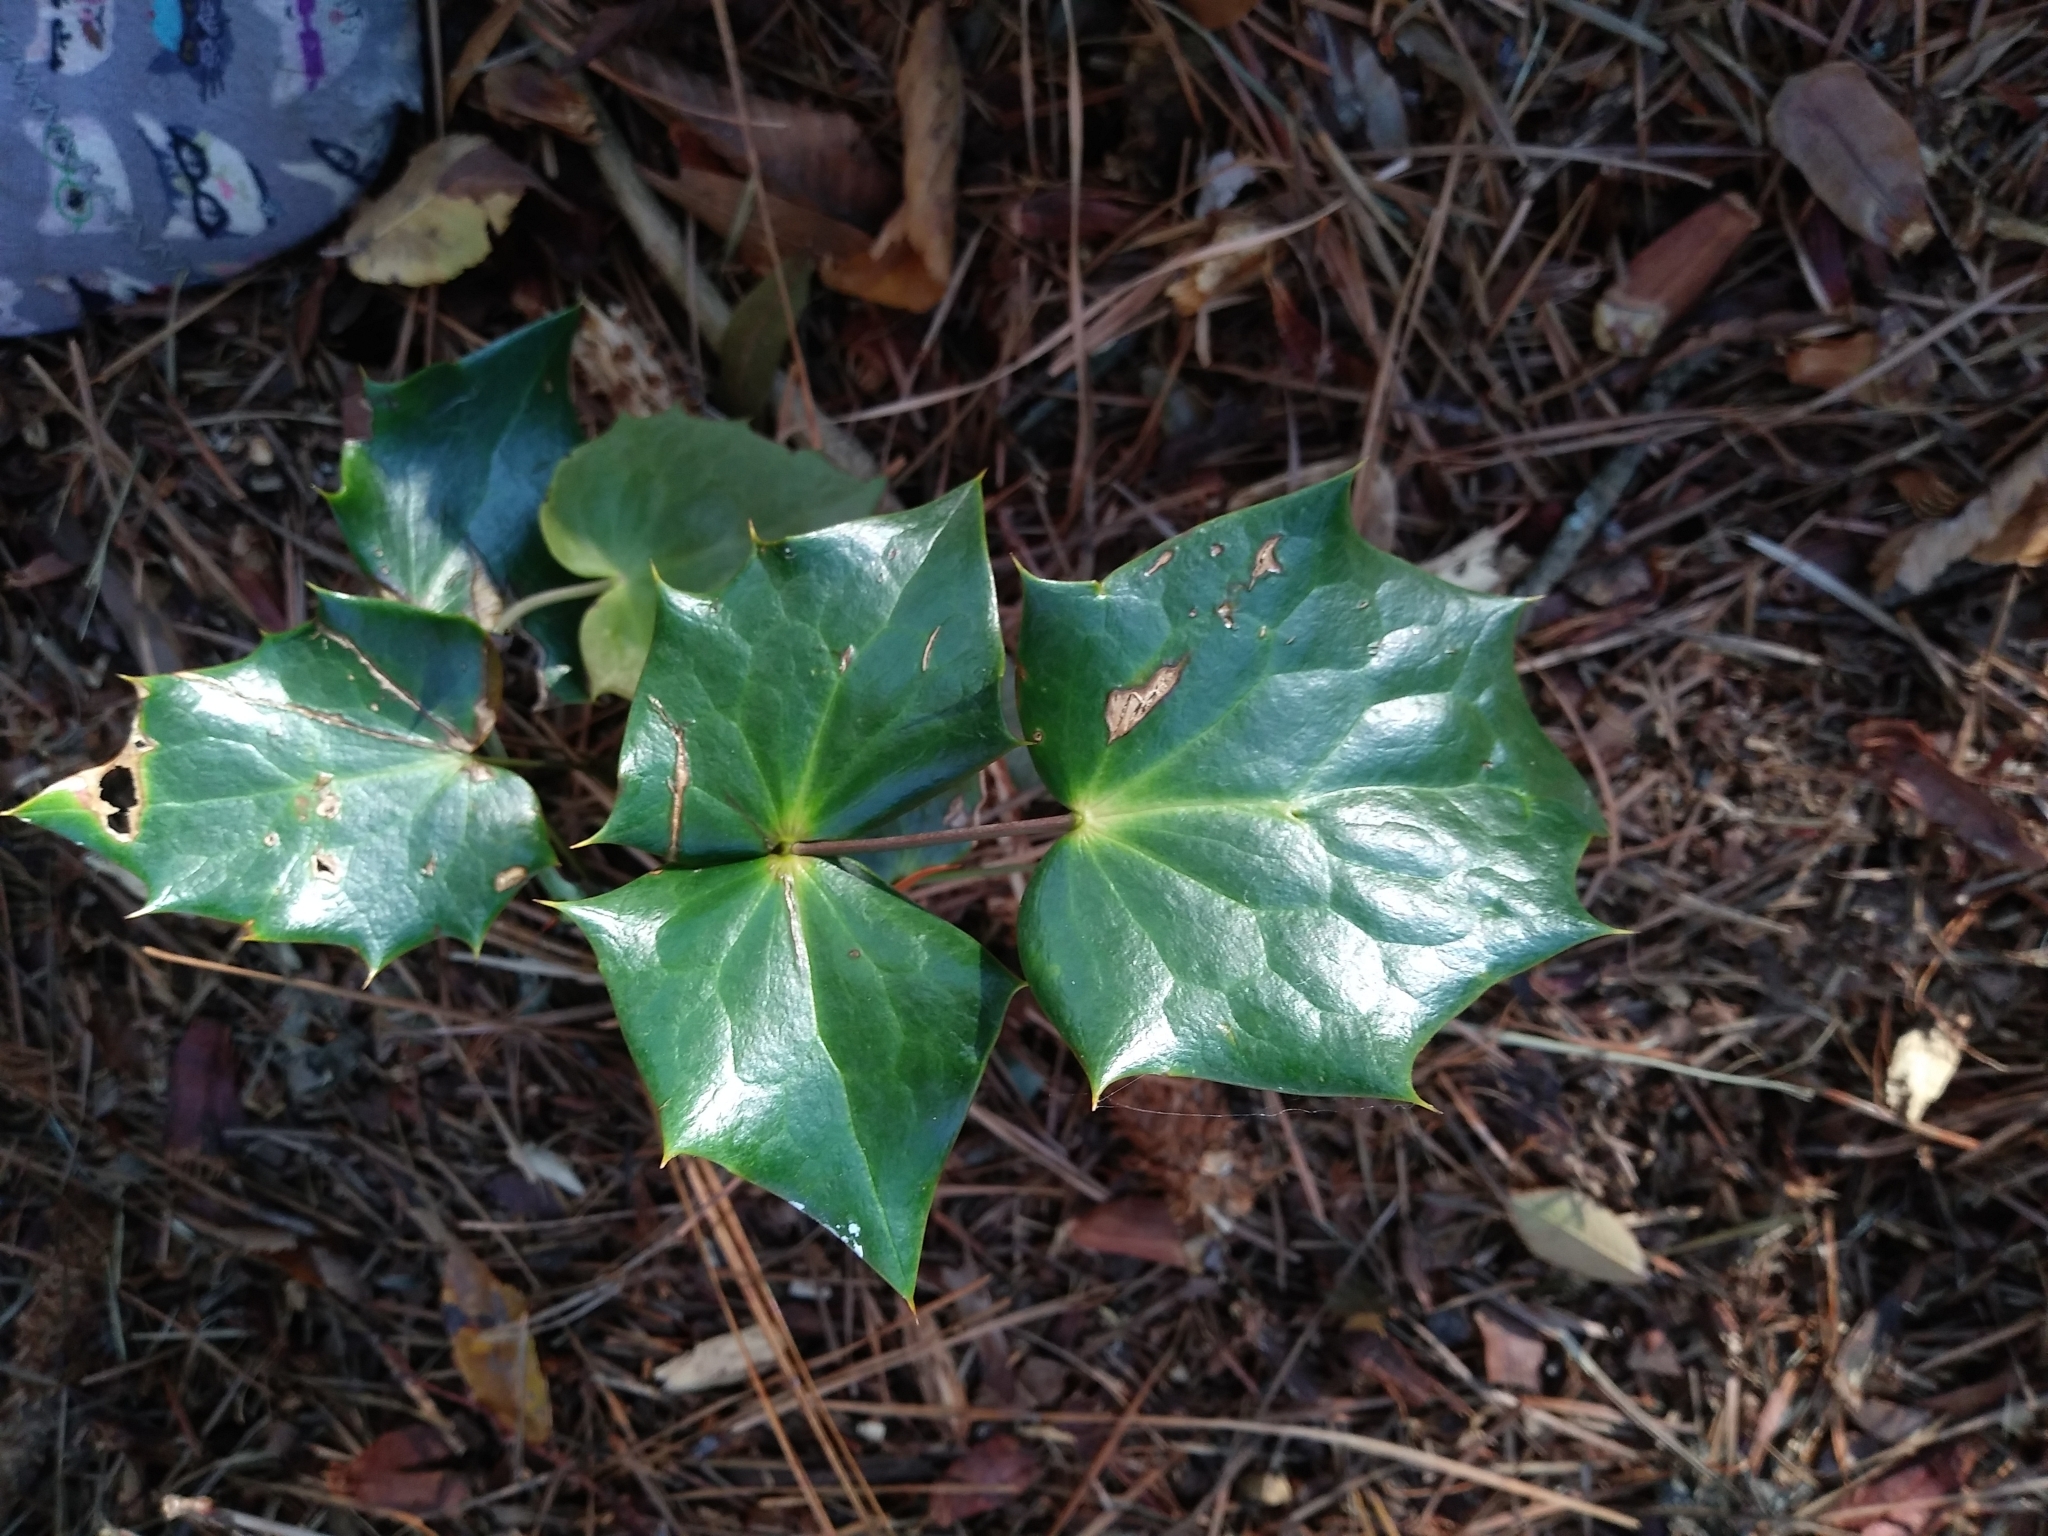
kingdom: Plantae
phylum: Tracheophyta
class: Magnoliopsida
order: Ranunculales
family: Berberidaceae
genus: Mahonia
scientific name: Mahonia bealei
